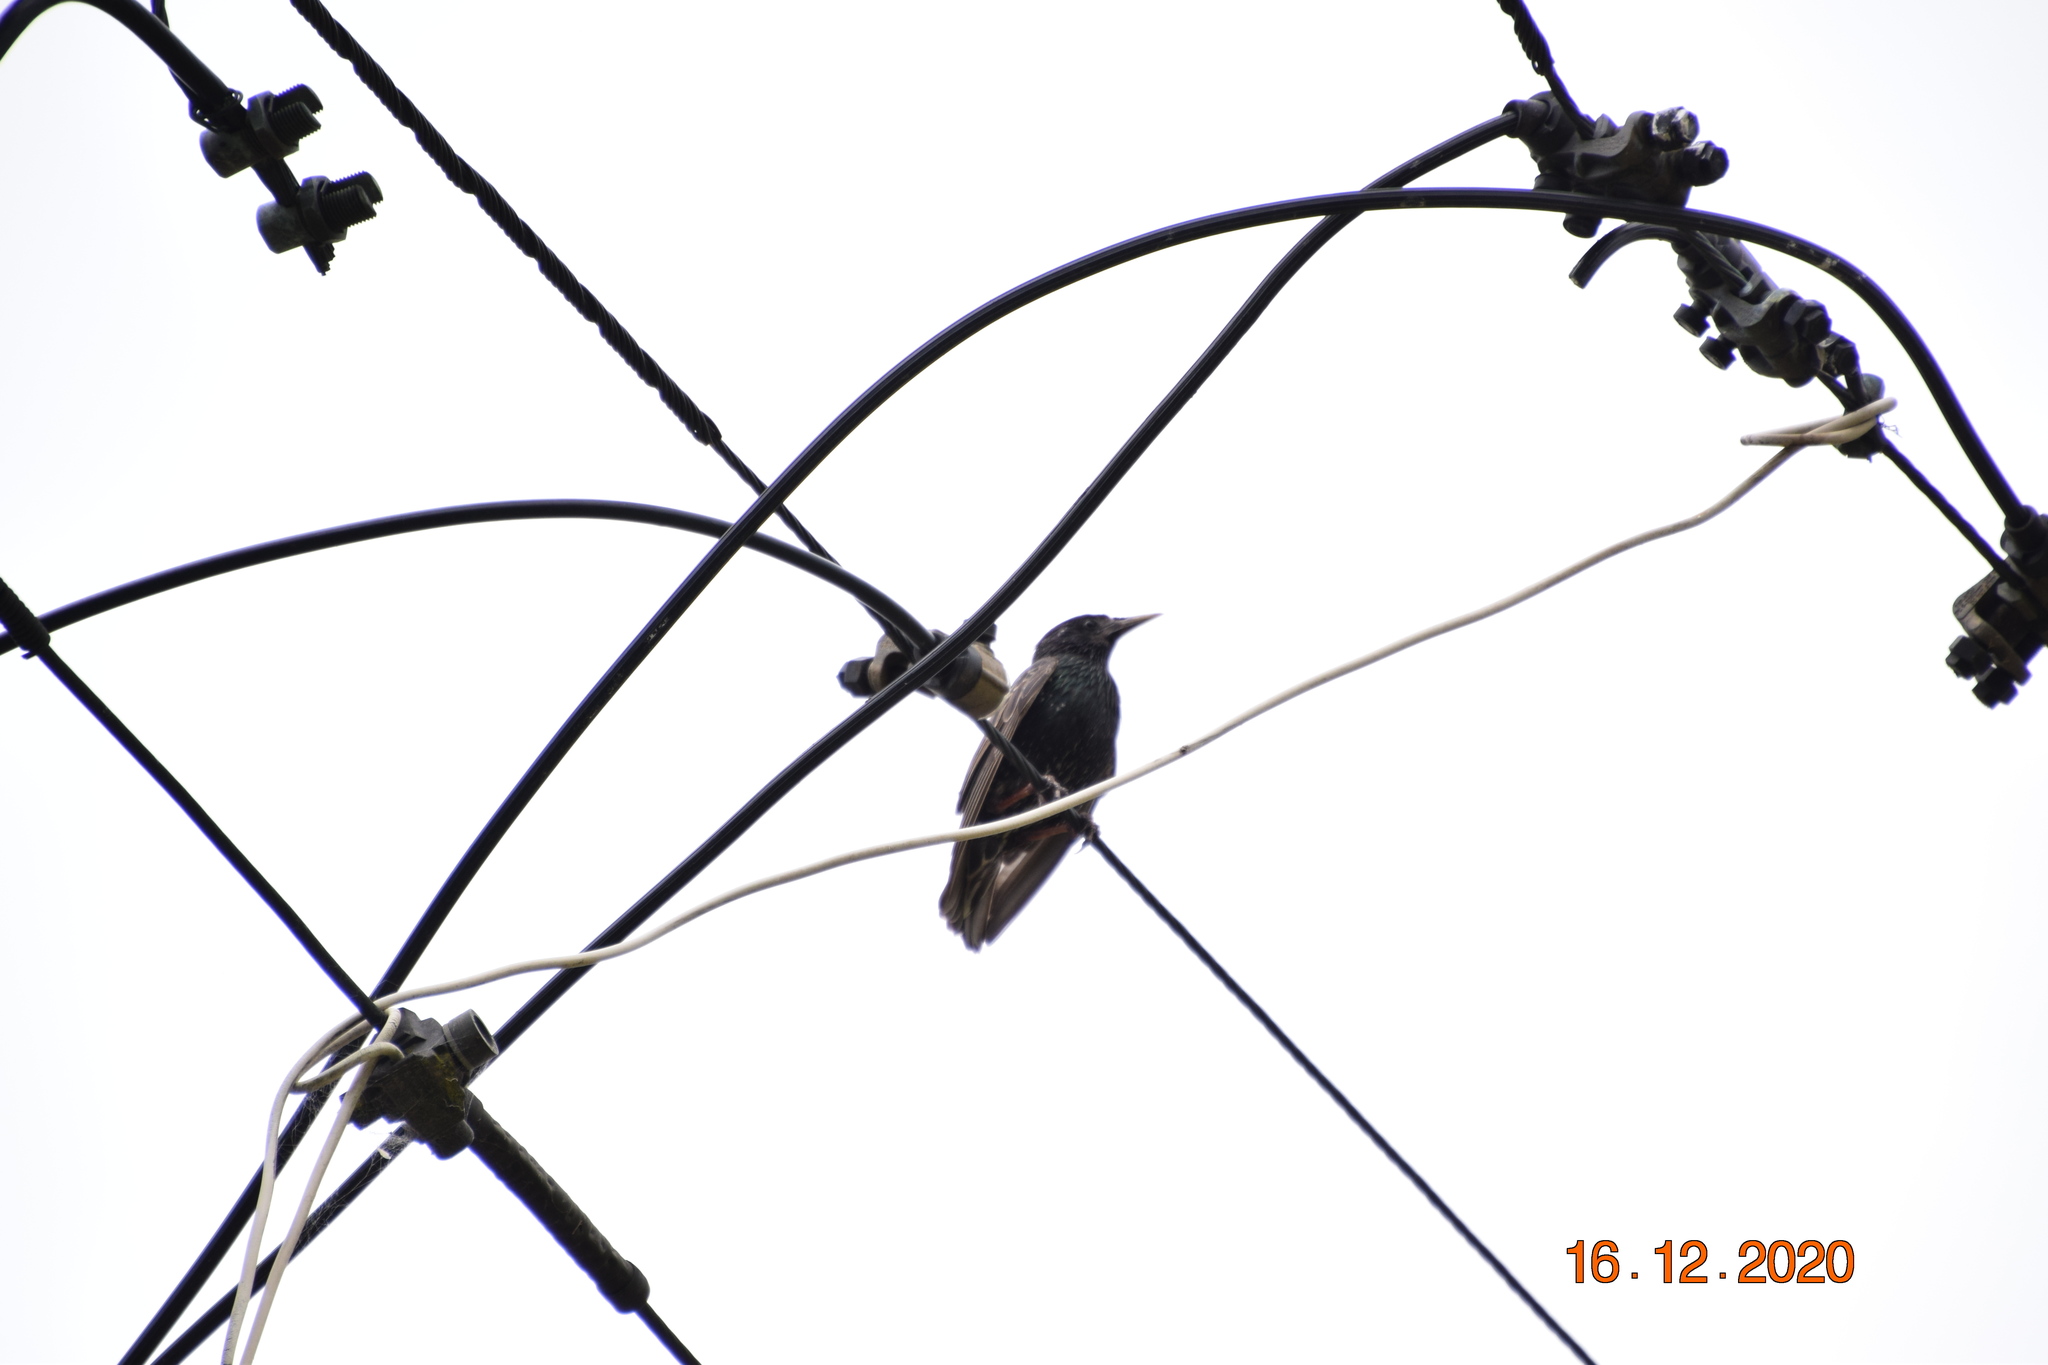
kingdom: Animalia
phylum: Chordata
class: Aves
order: Passeriformes
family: Sturnidae
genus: Sturnus
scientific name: Sturnus vulgaris
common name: Common starling
